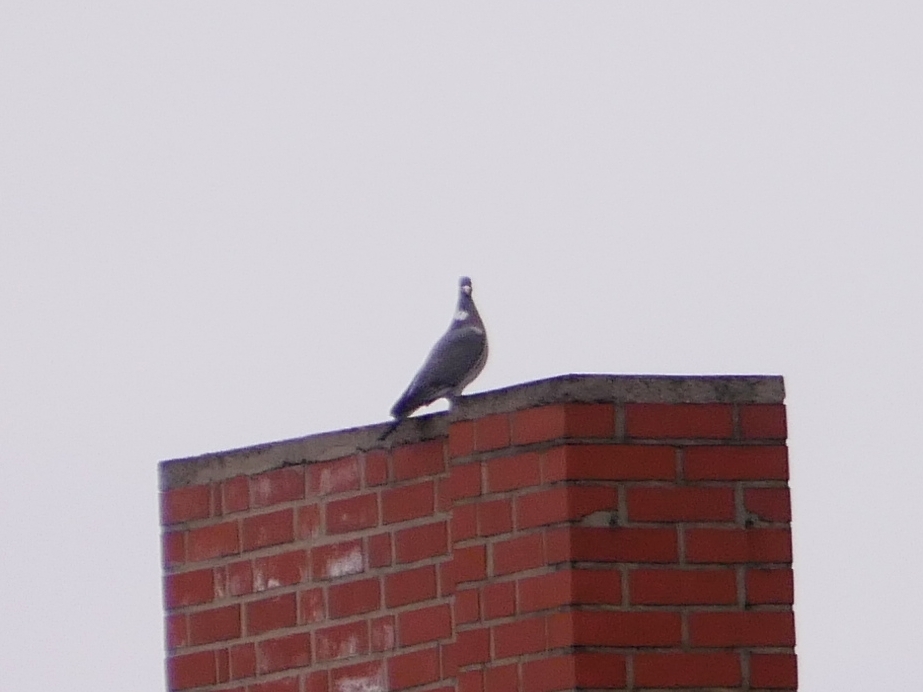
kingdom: Animalia
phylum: Chordata
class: Aves
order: Columbiformes
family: Columbidae
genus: Columba
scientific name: Columba palumbus
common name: Common wood pigeon
